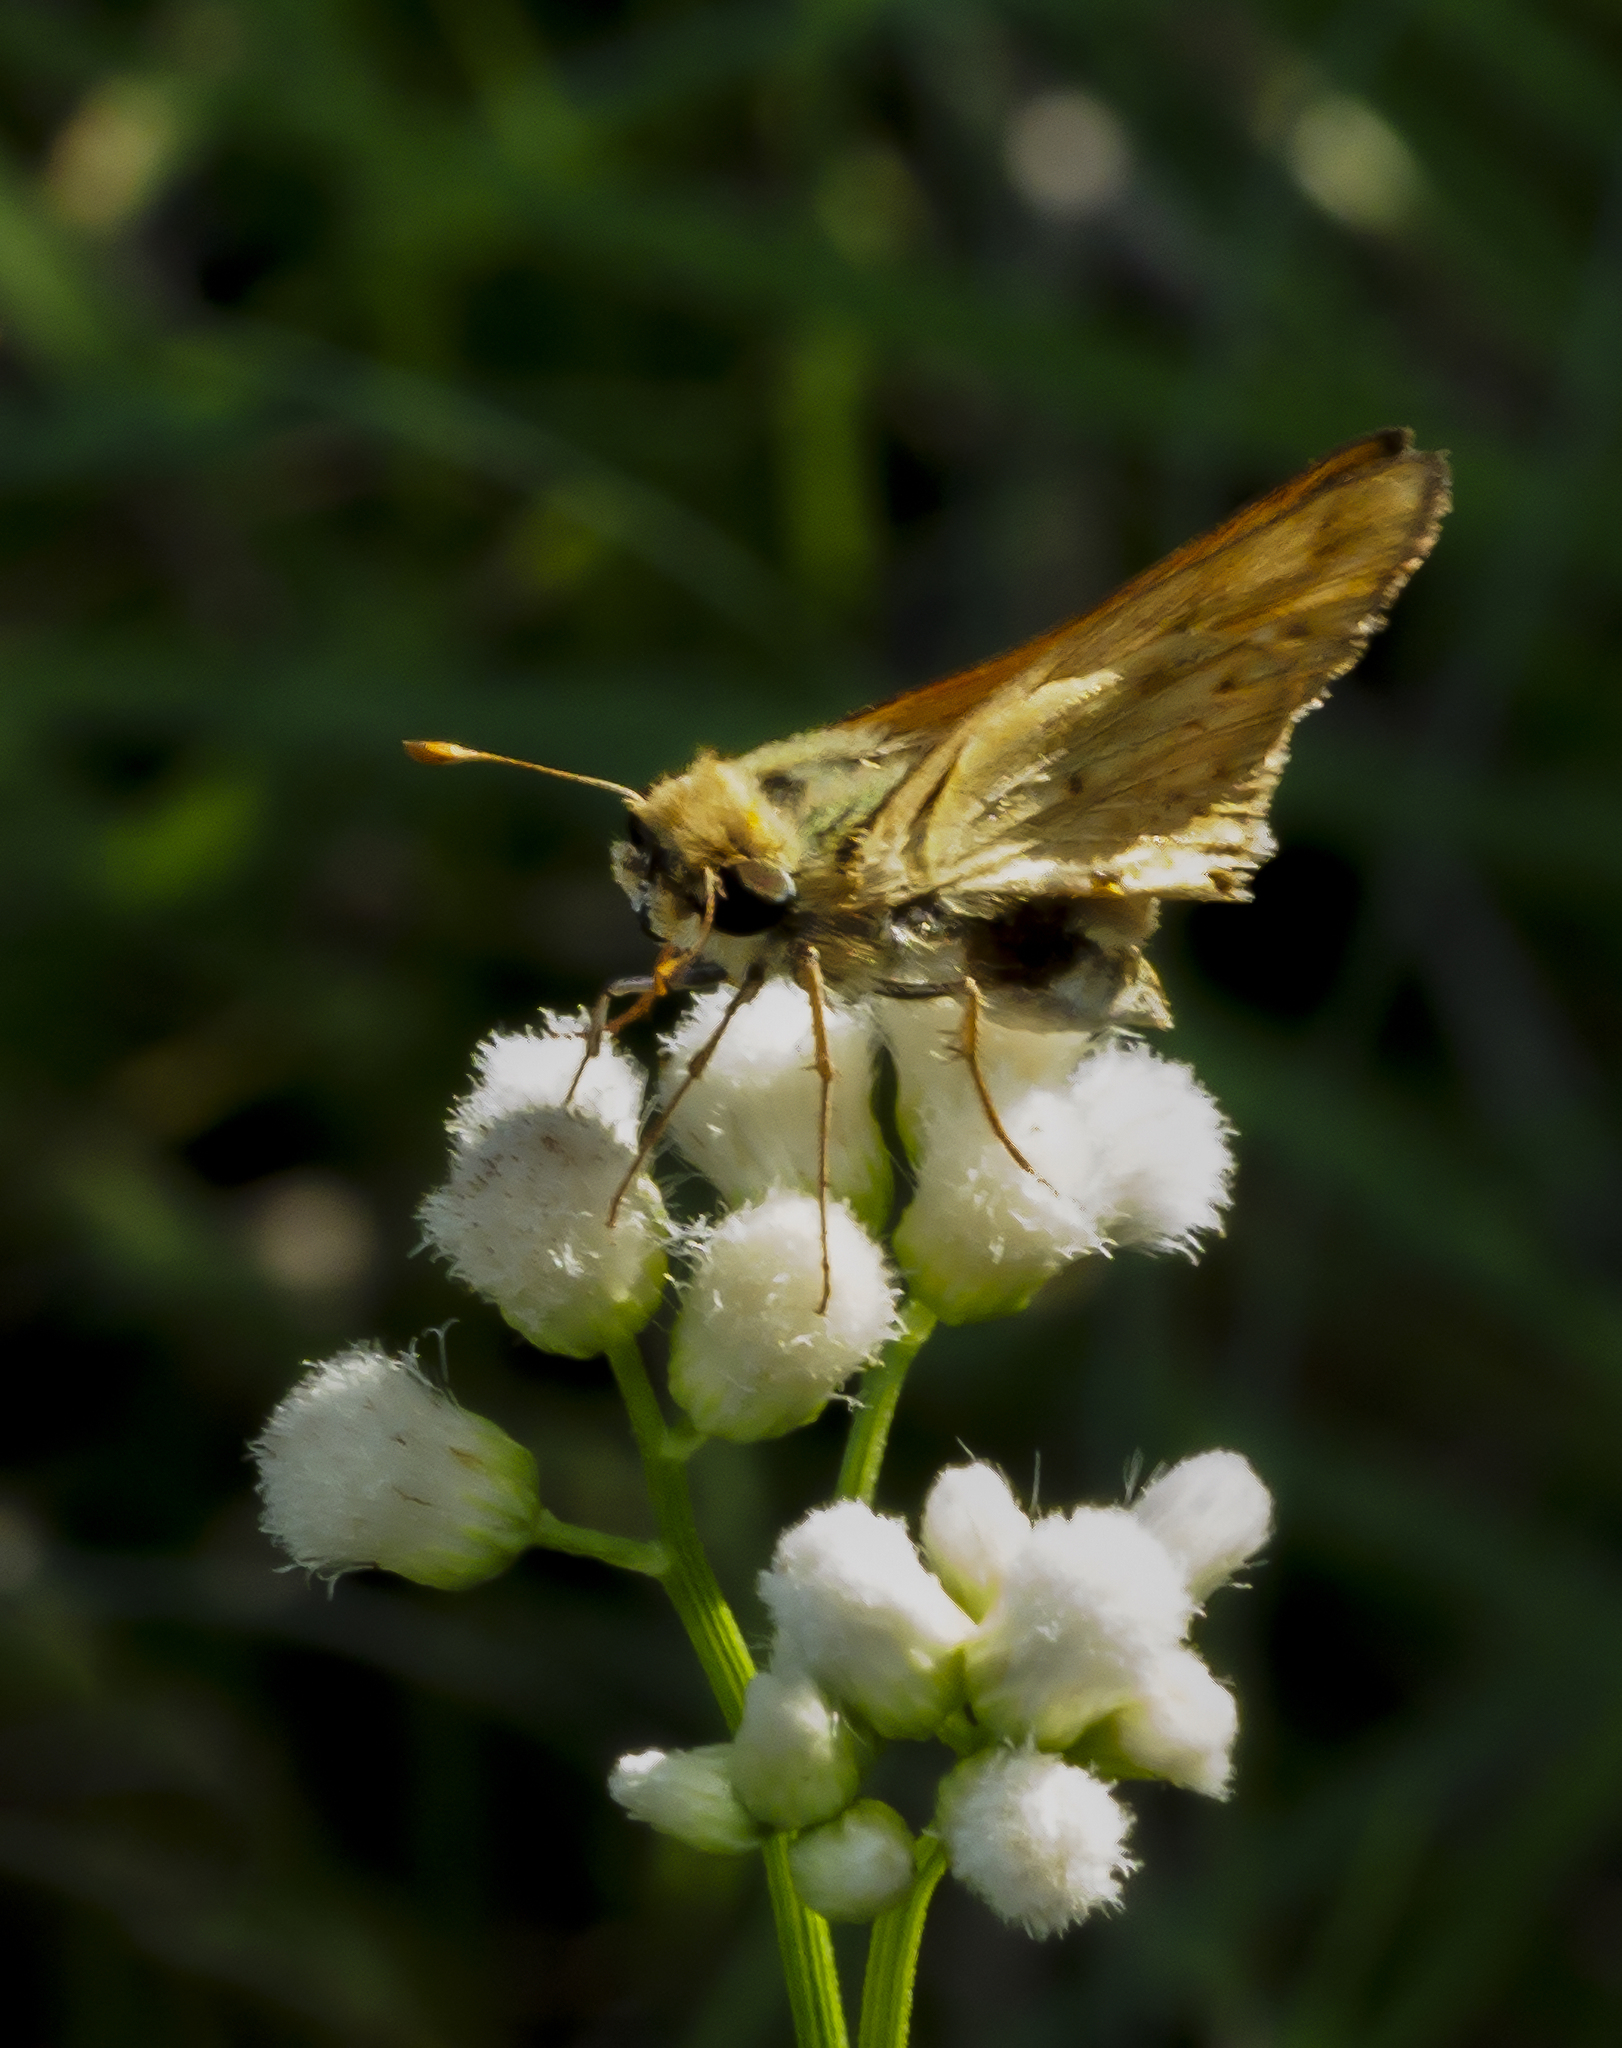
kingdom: Animalia
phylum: Arthropoda
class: Insecta
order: Lepidoptera
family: Hesperiidae
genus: Hylephila
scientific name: Hylephila phyleus
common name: Fiery skipper
